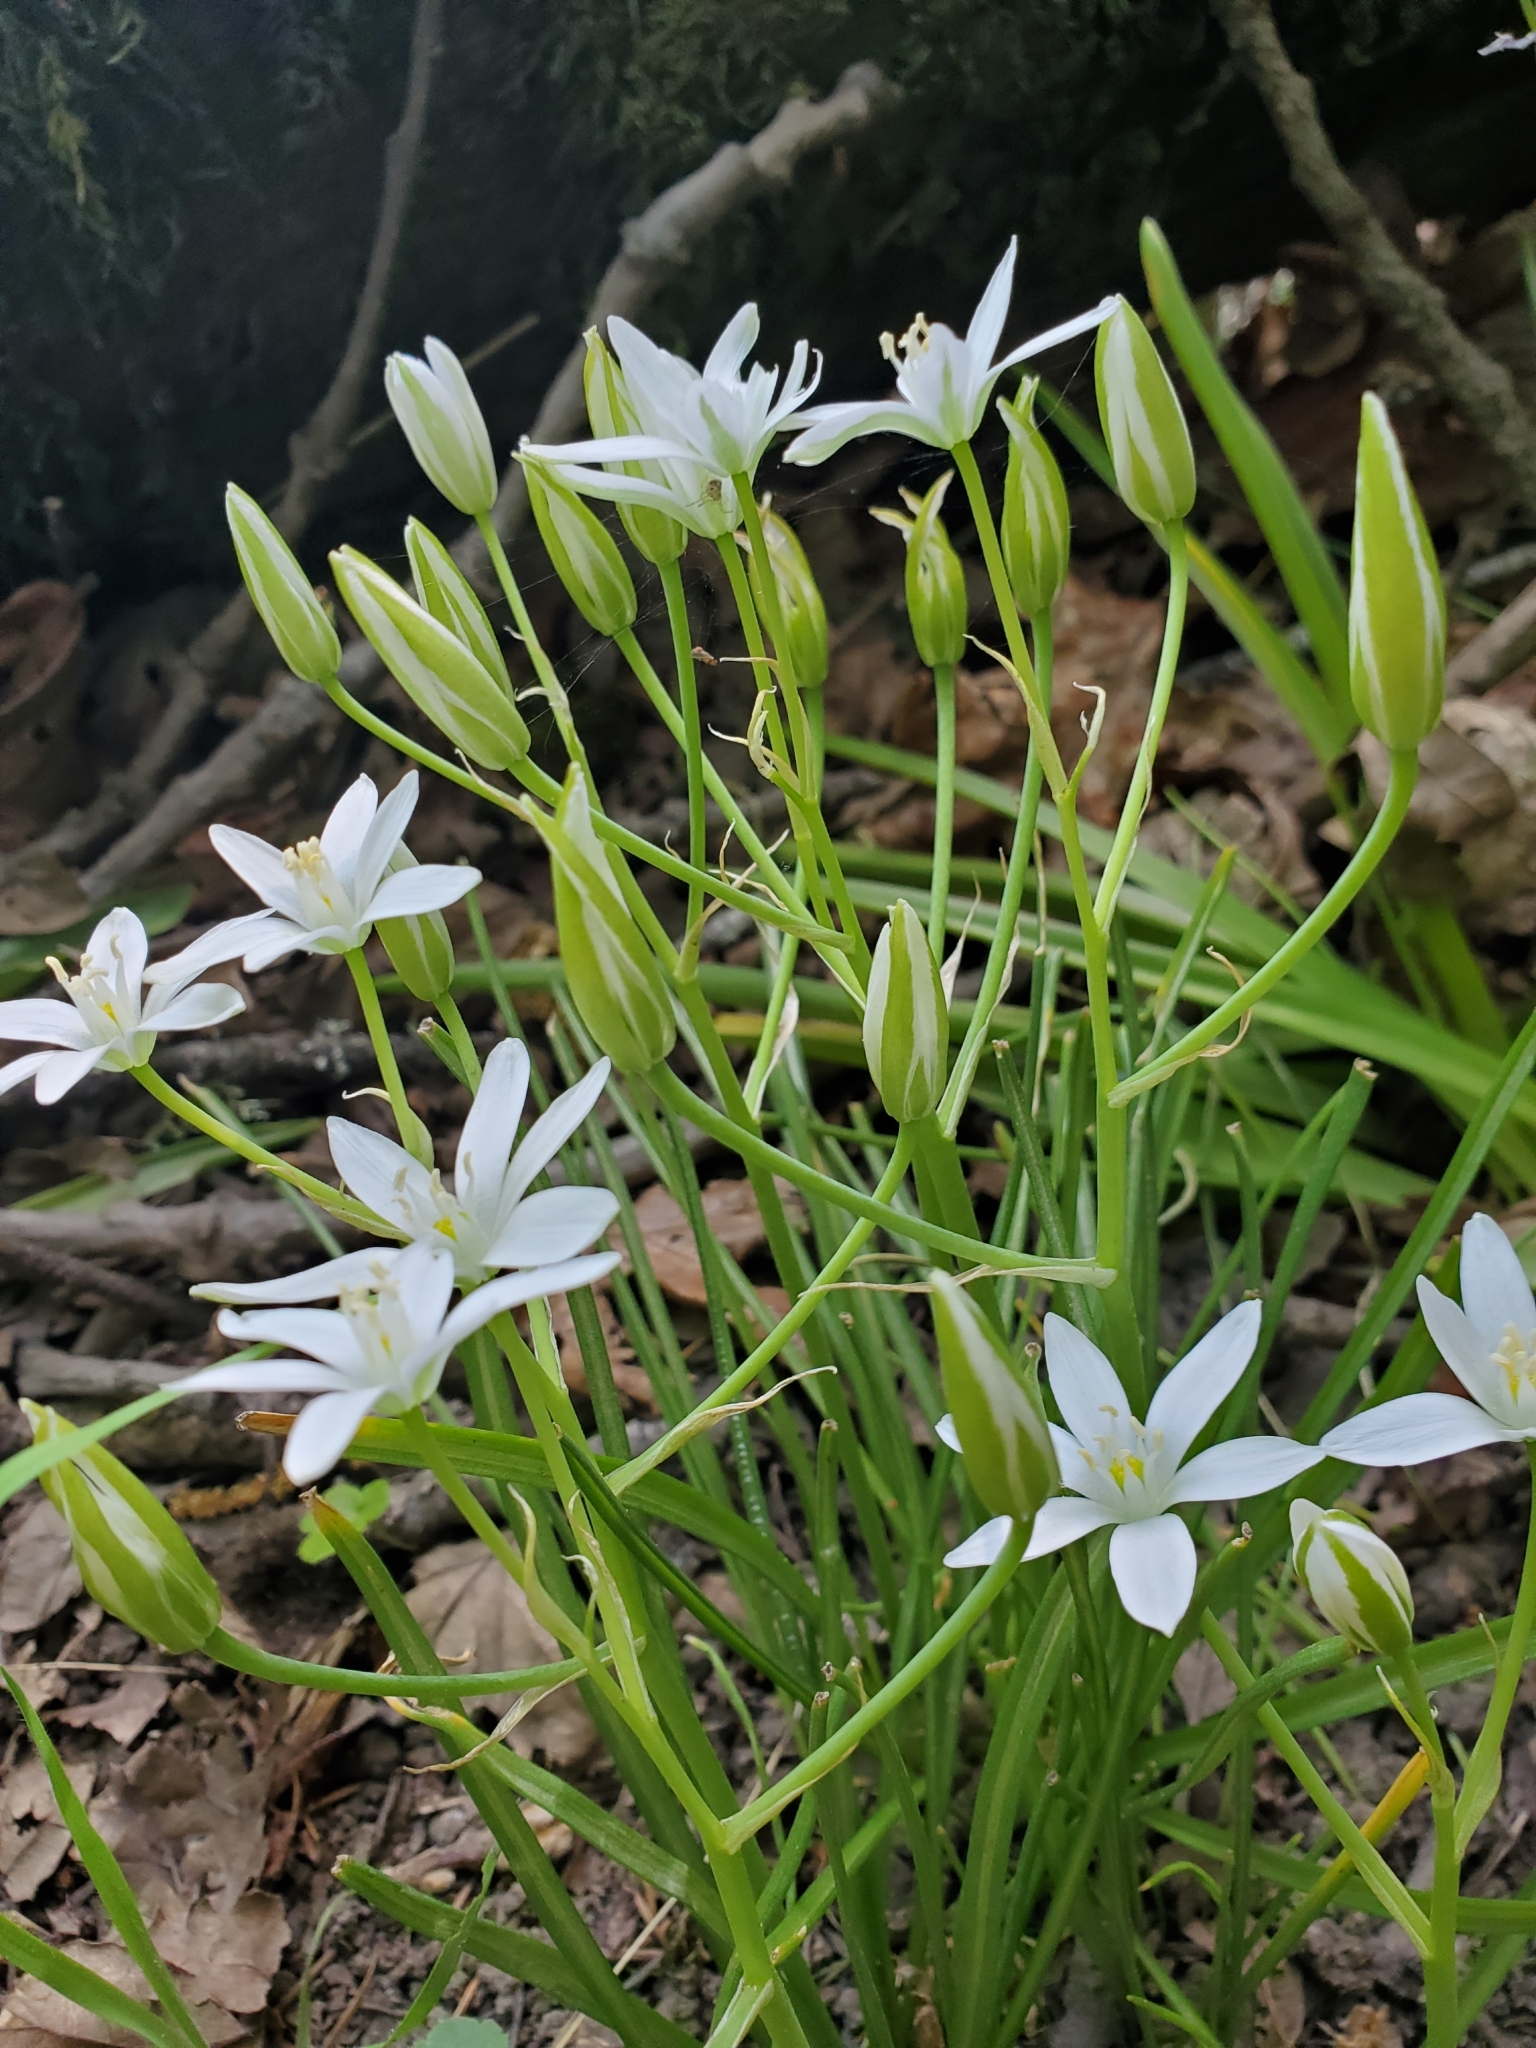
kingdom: Plantae
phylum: Tracheophyta
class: Liliopsida
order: Asparagales
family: Asparagaceae
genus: Ornithogalum
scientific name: Ornithogalum umbellatum
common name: Garden star-of-bethlehem
